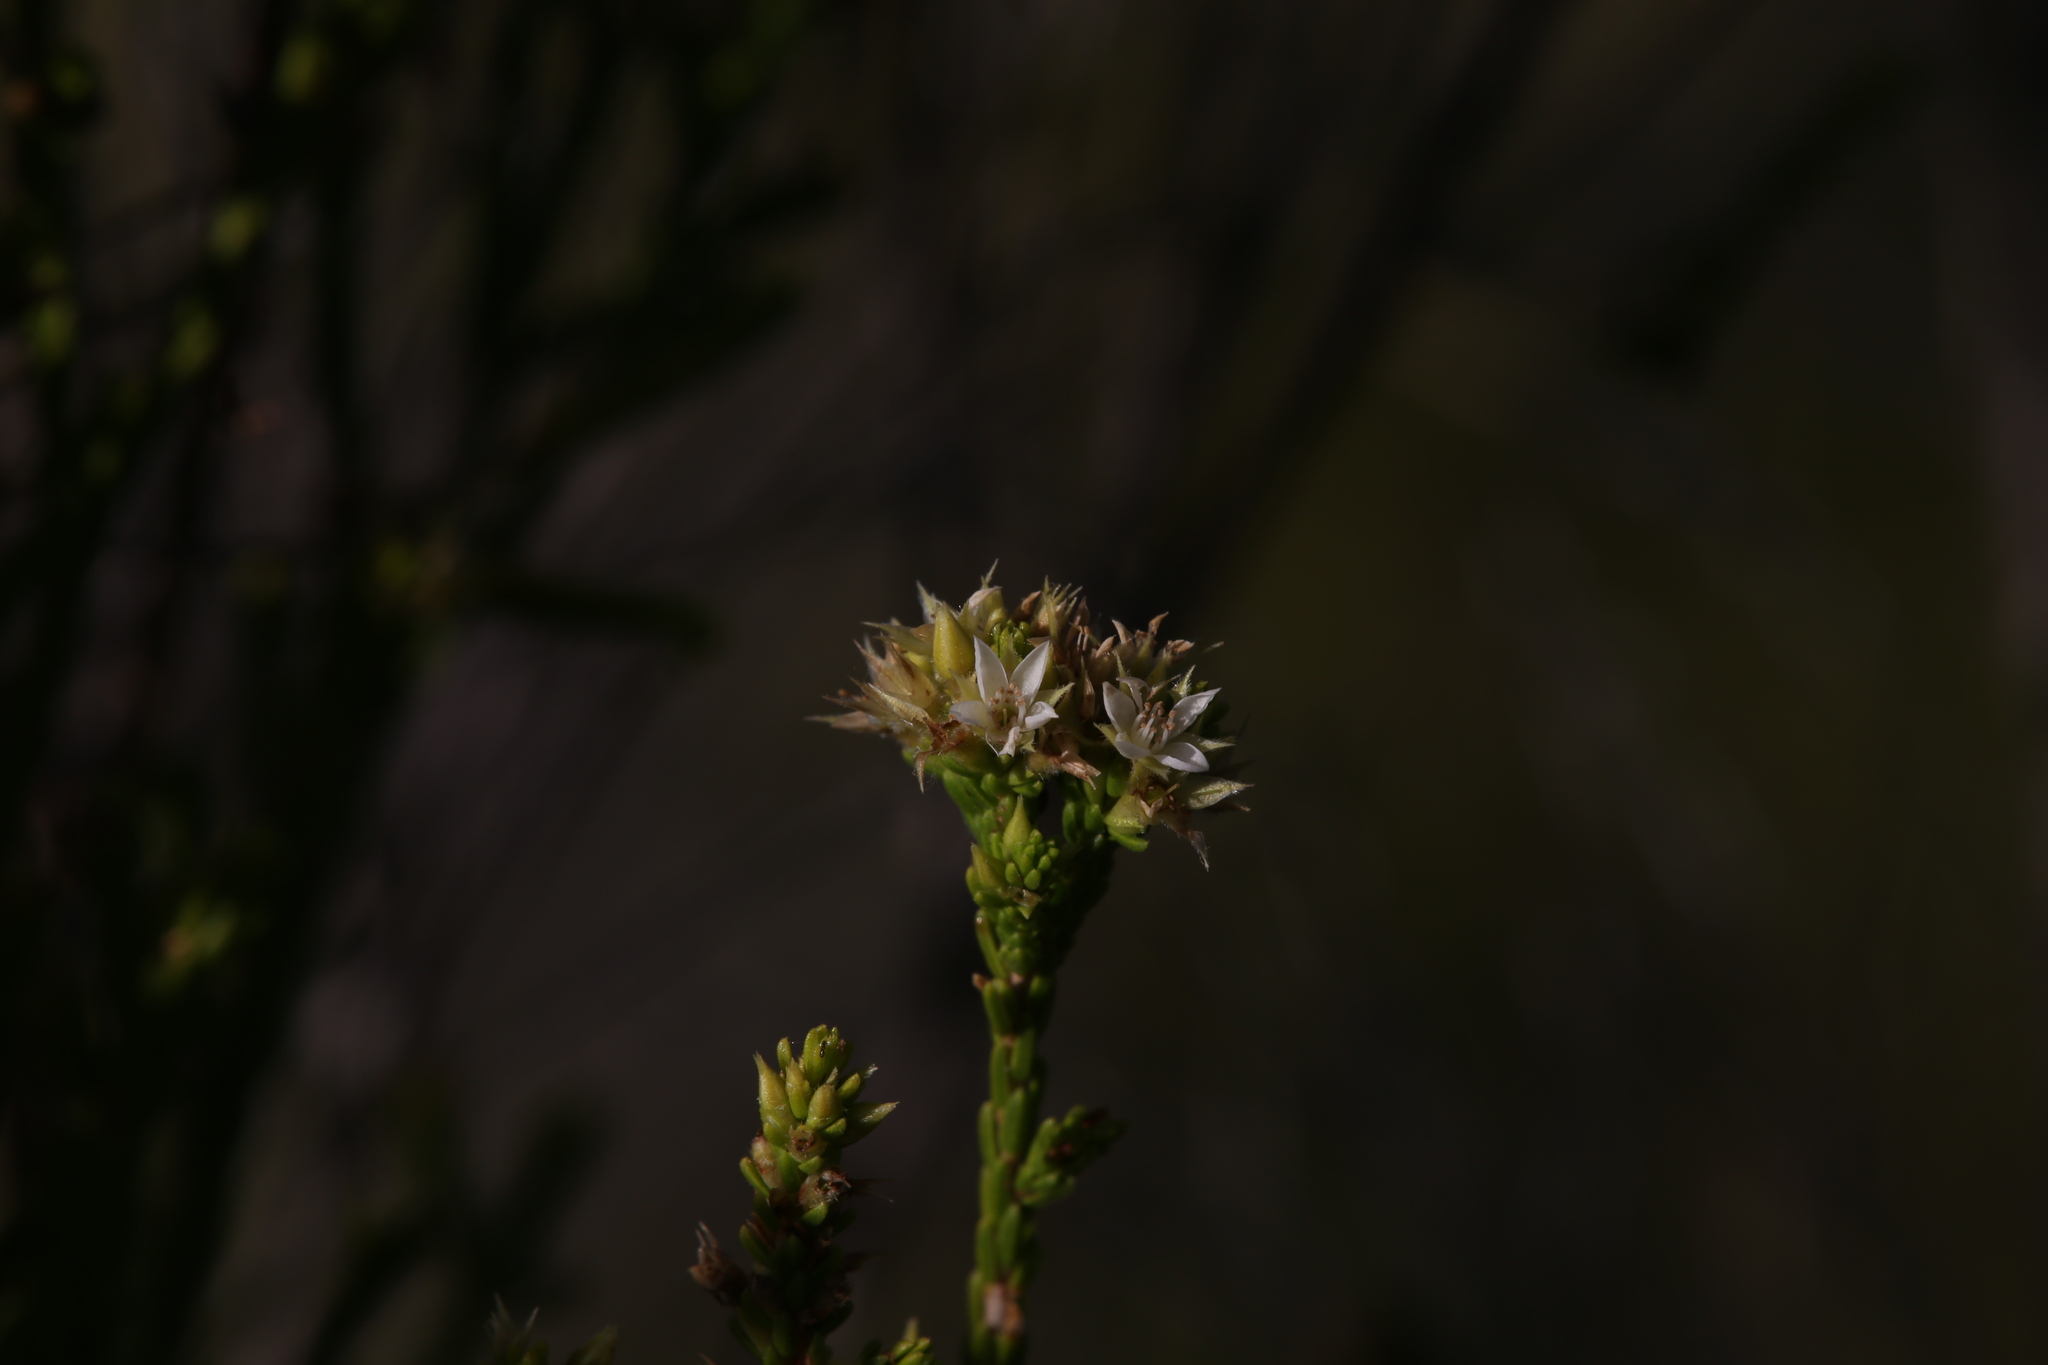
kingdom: Plantae
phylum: Tracheophyta
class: Magnoliopsida
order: Myrtales
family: Myrtaceae
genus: Calytrix
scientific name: Calytrix brownii
